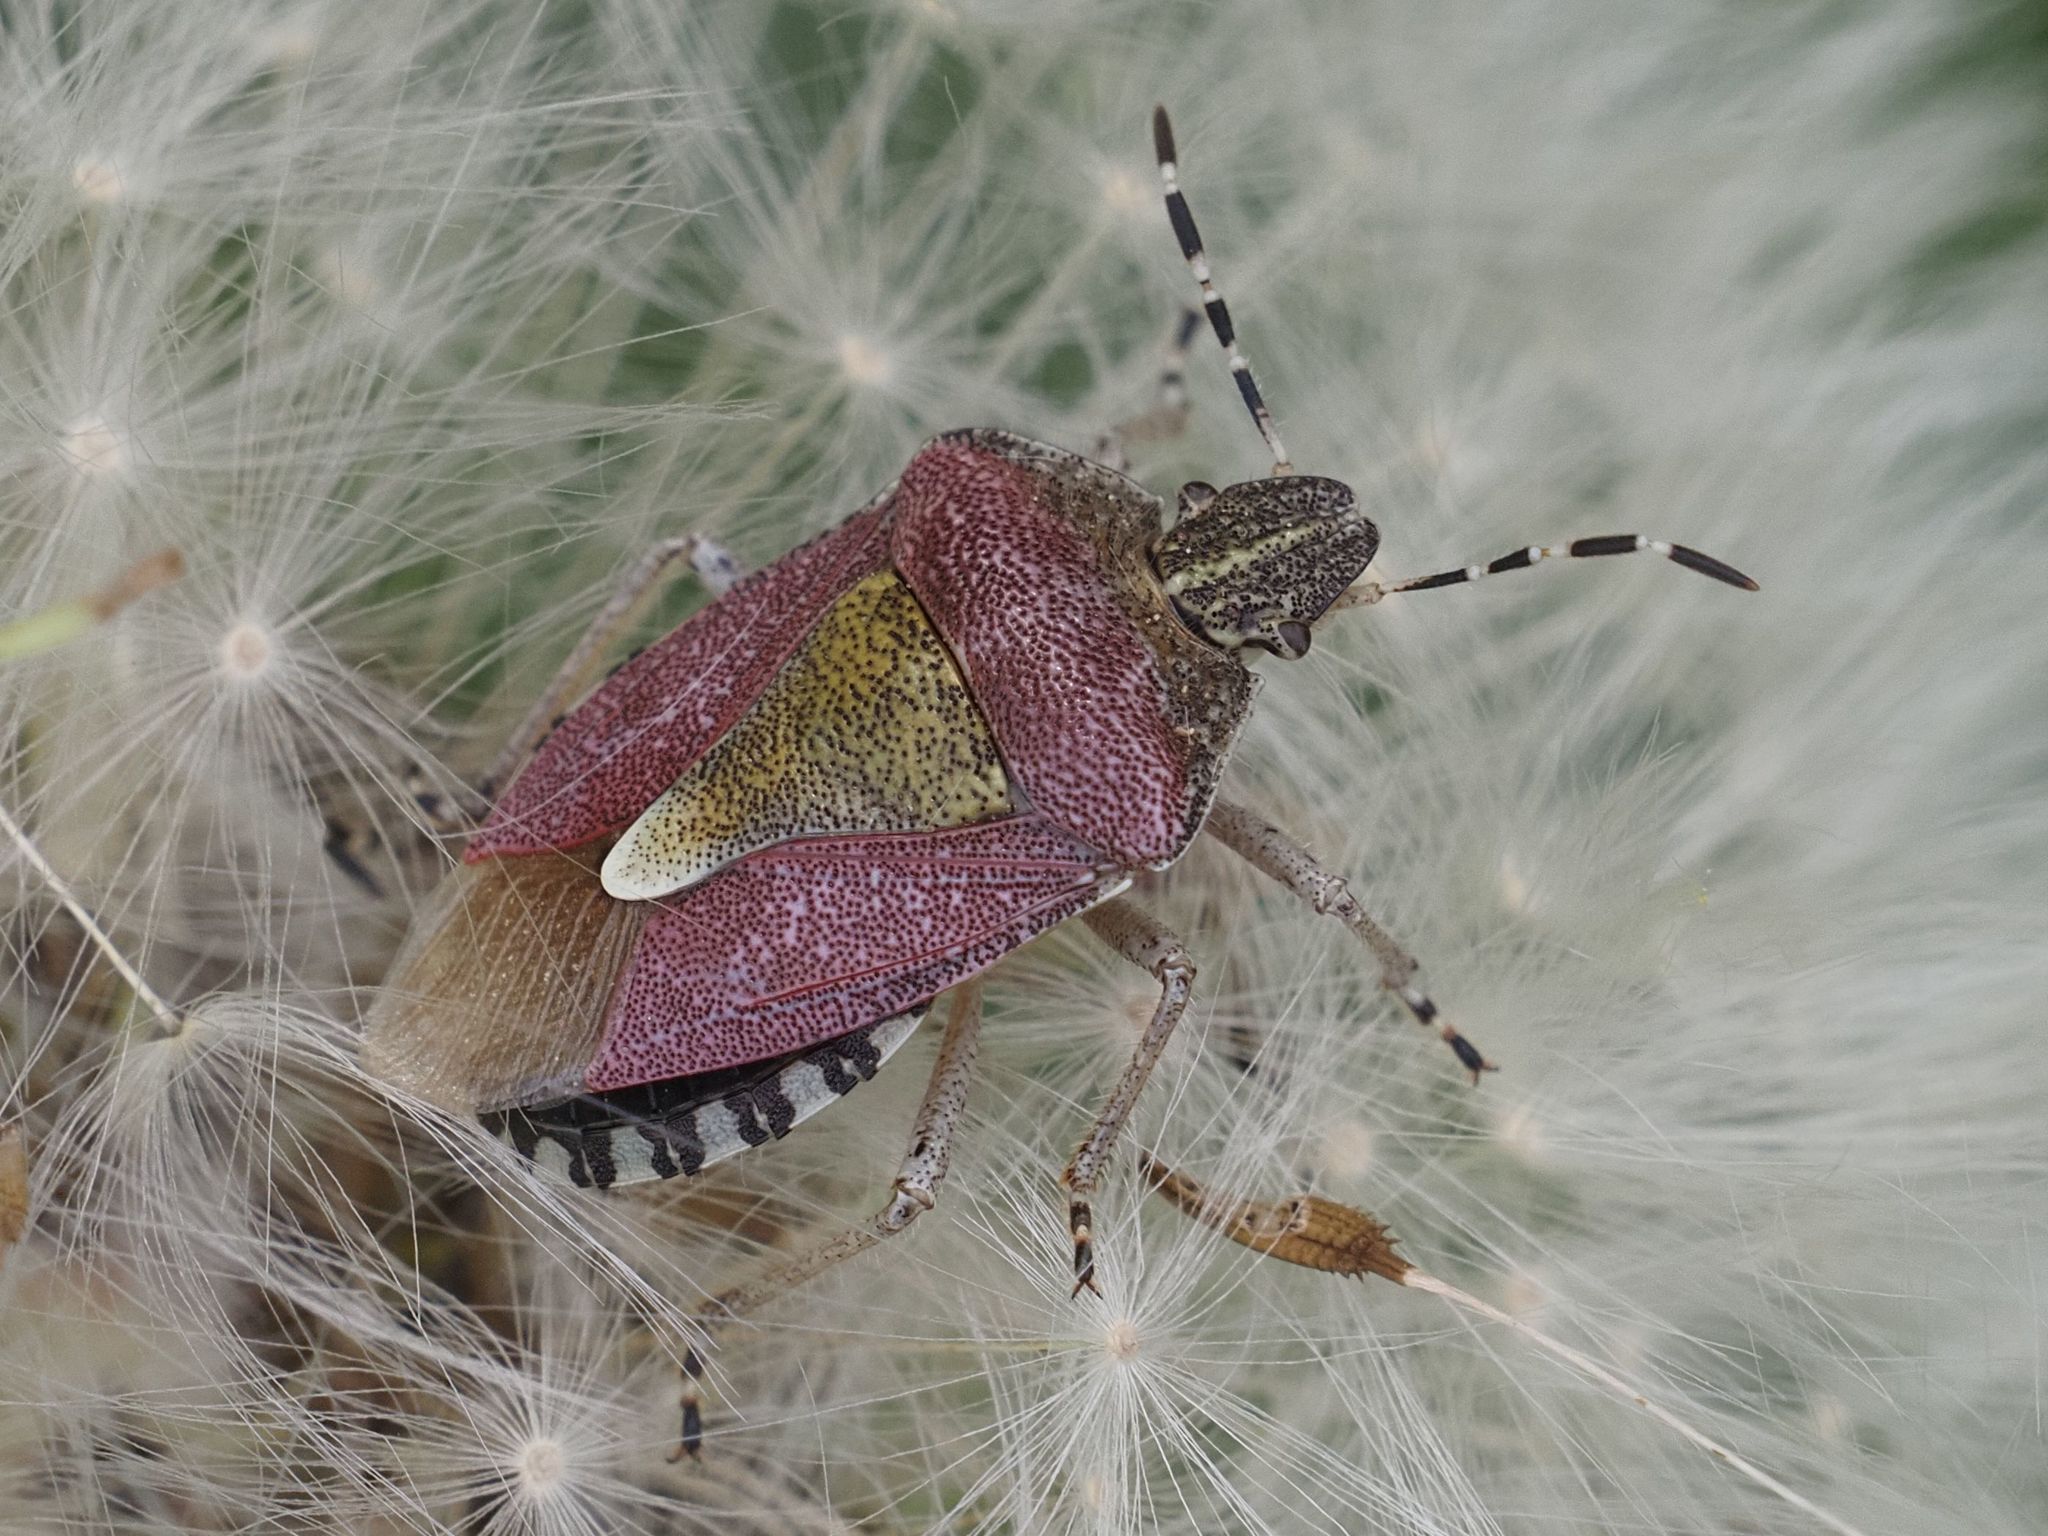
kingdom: Animalia
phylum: Arthropoda
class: Insecta
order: Hemiptera
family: Pentatomidae
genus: Dolycoris
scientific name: Dolycoris baccarum
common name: Sloe bug
